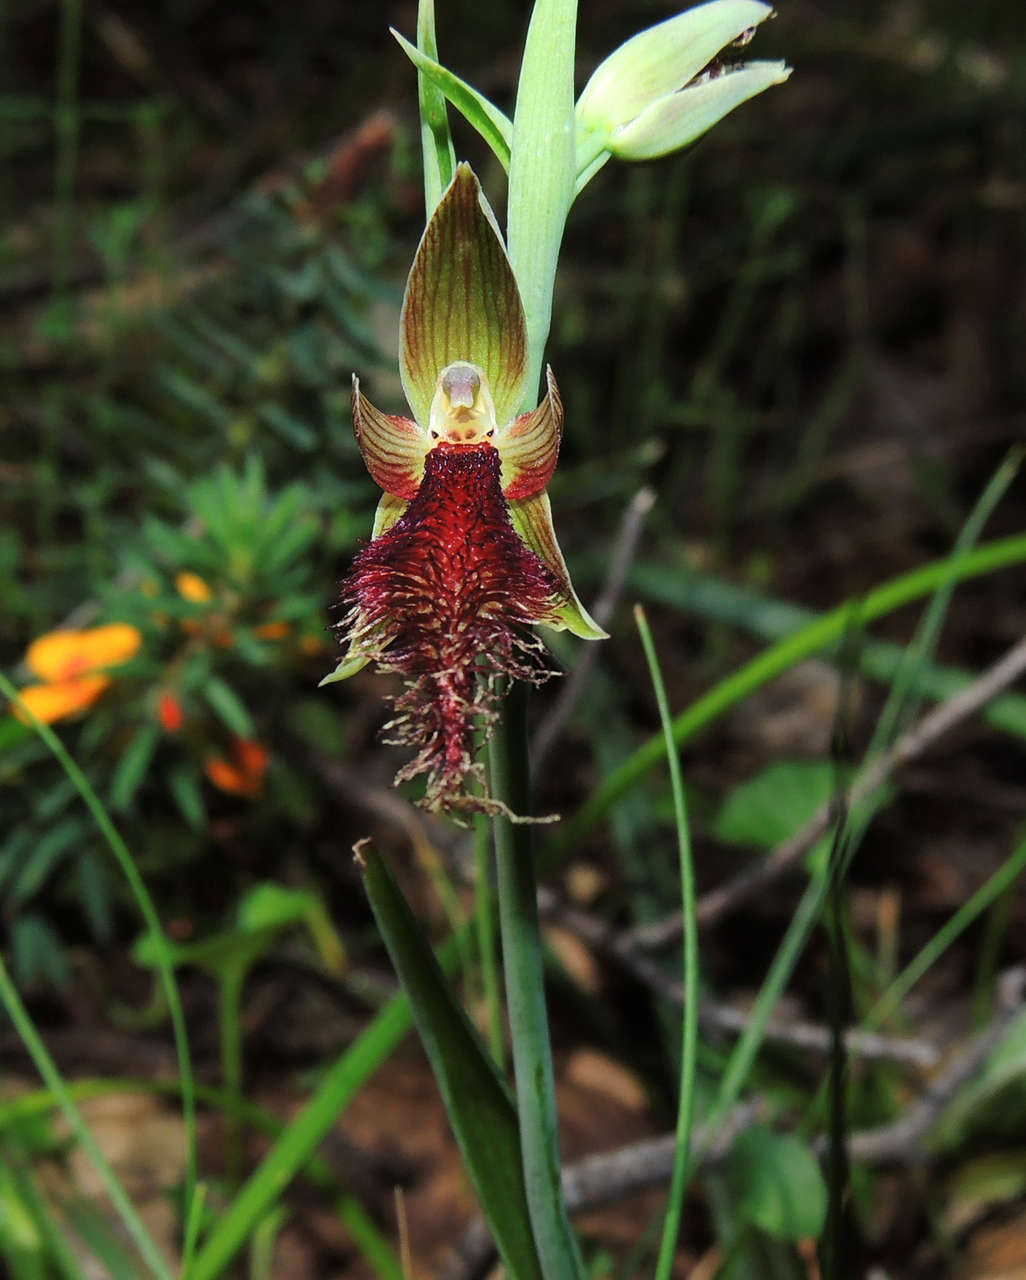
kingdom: Plantae
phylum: Tracheophyta
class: Liliopsida
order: Asparagales
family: Orchidaceae
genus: Calochilus
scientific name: Calochilus robertsonii
